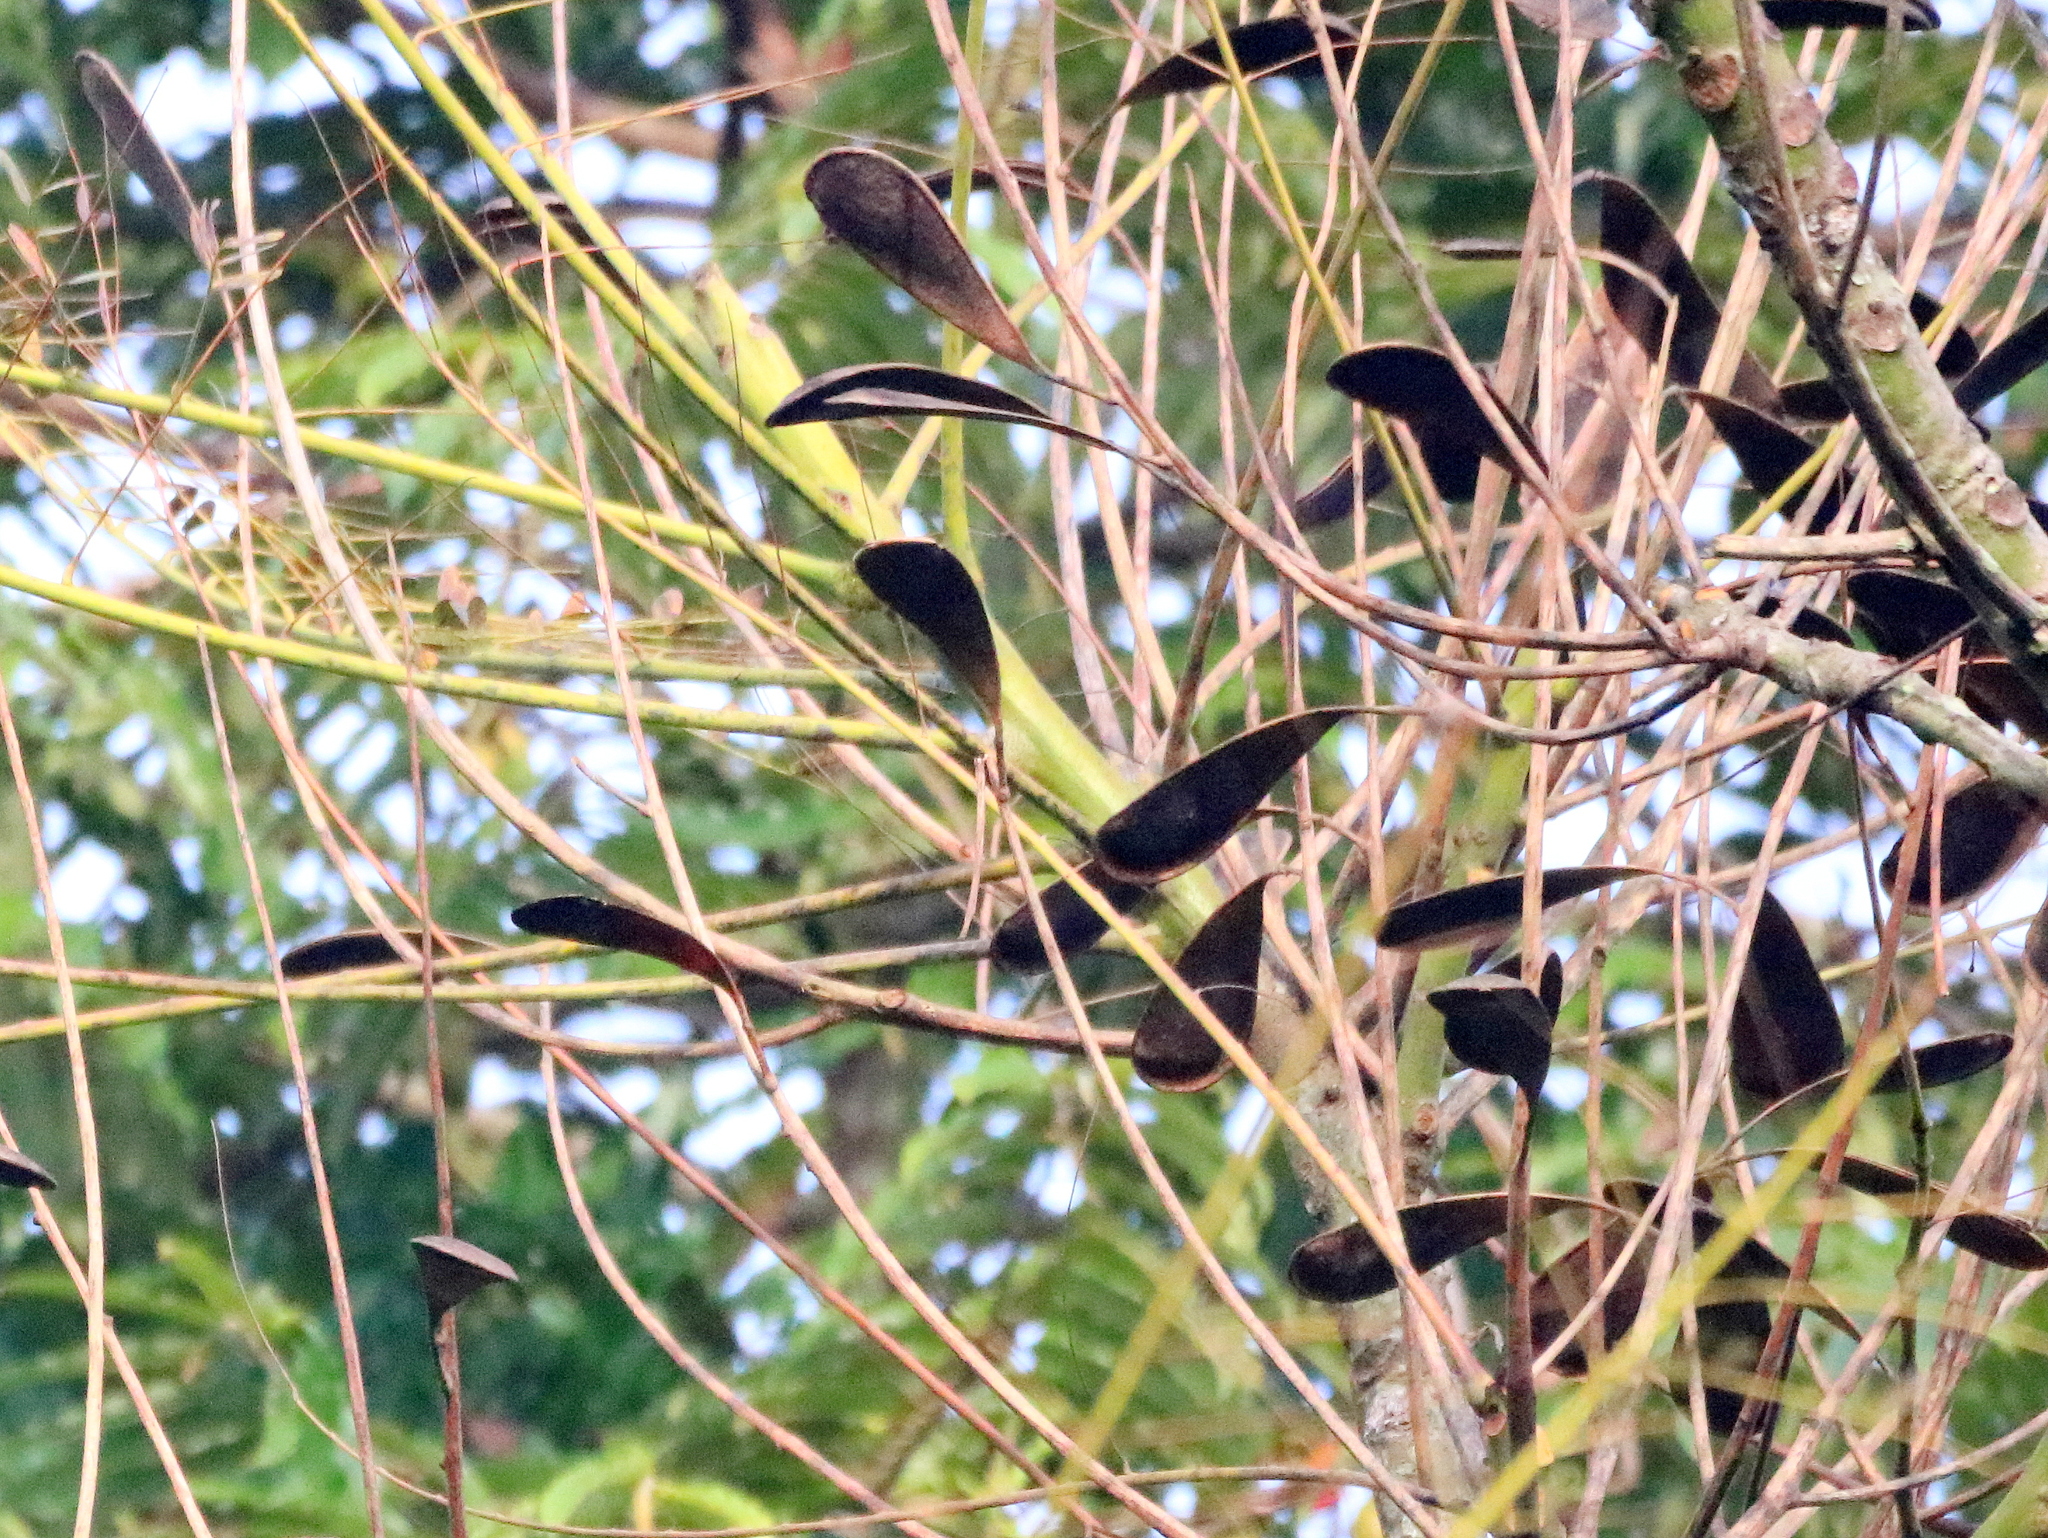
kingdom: Plantae
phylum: Tracheophyta
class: Magnoliopsida
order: Fabales
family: Fabaceae
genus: Schizolobium
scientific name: Schizolobium parahyba
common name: Brazilian firetree
